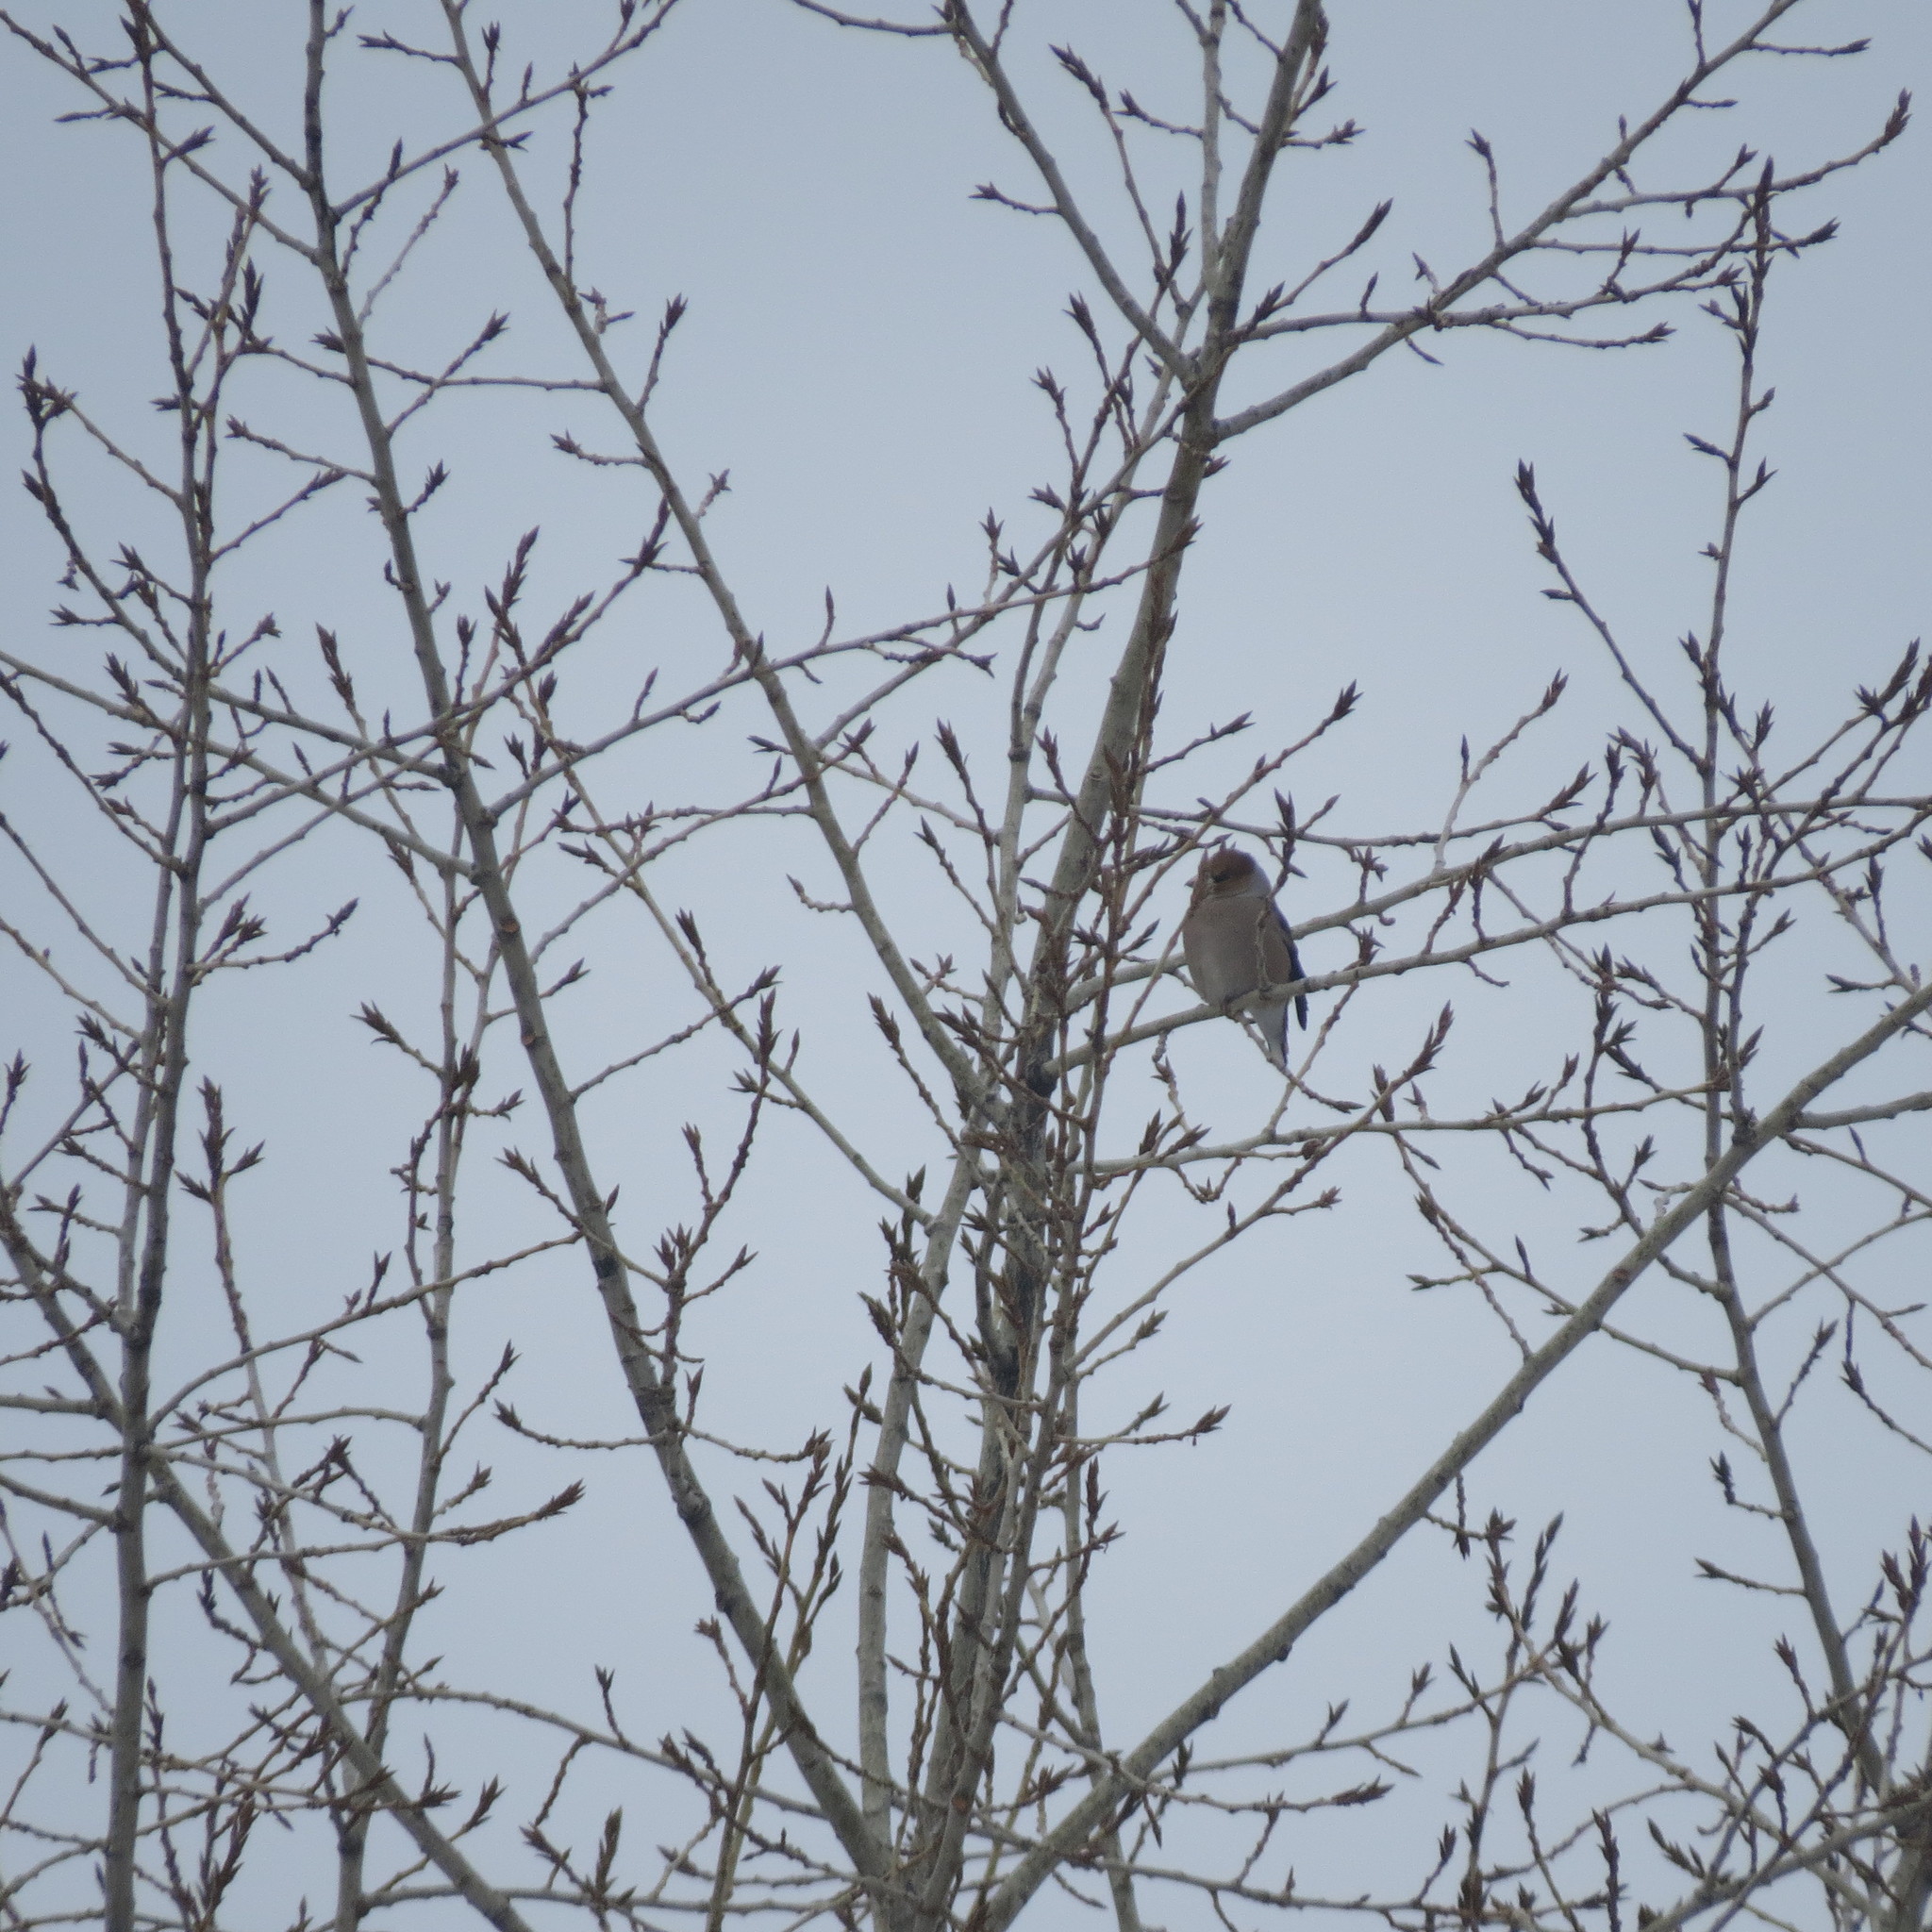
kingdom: Animalia
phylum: Chordata
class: Aves
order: Passeriformes
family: Fringillidae
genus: Coccothraustes
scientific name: Coccothraustes coccothraustes
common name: Hawfinch
